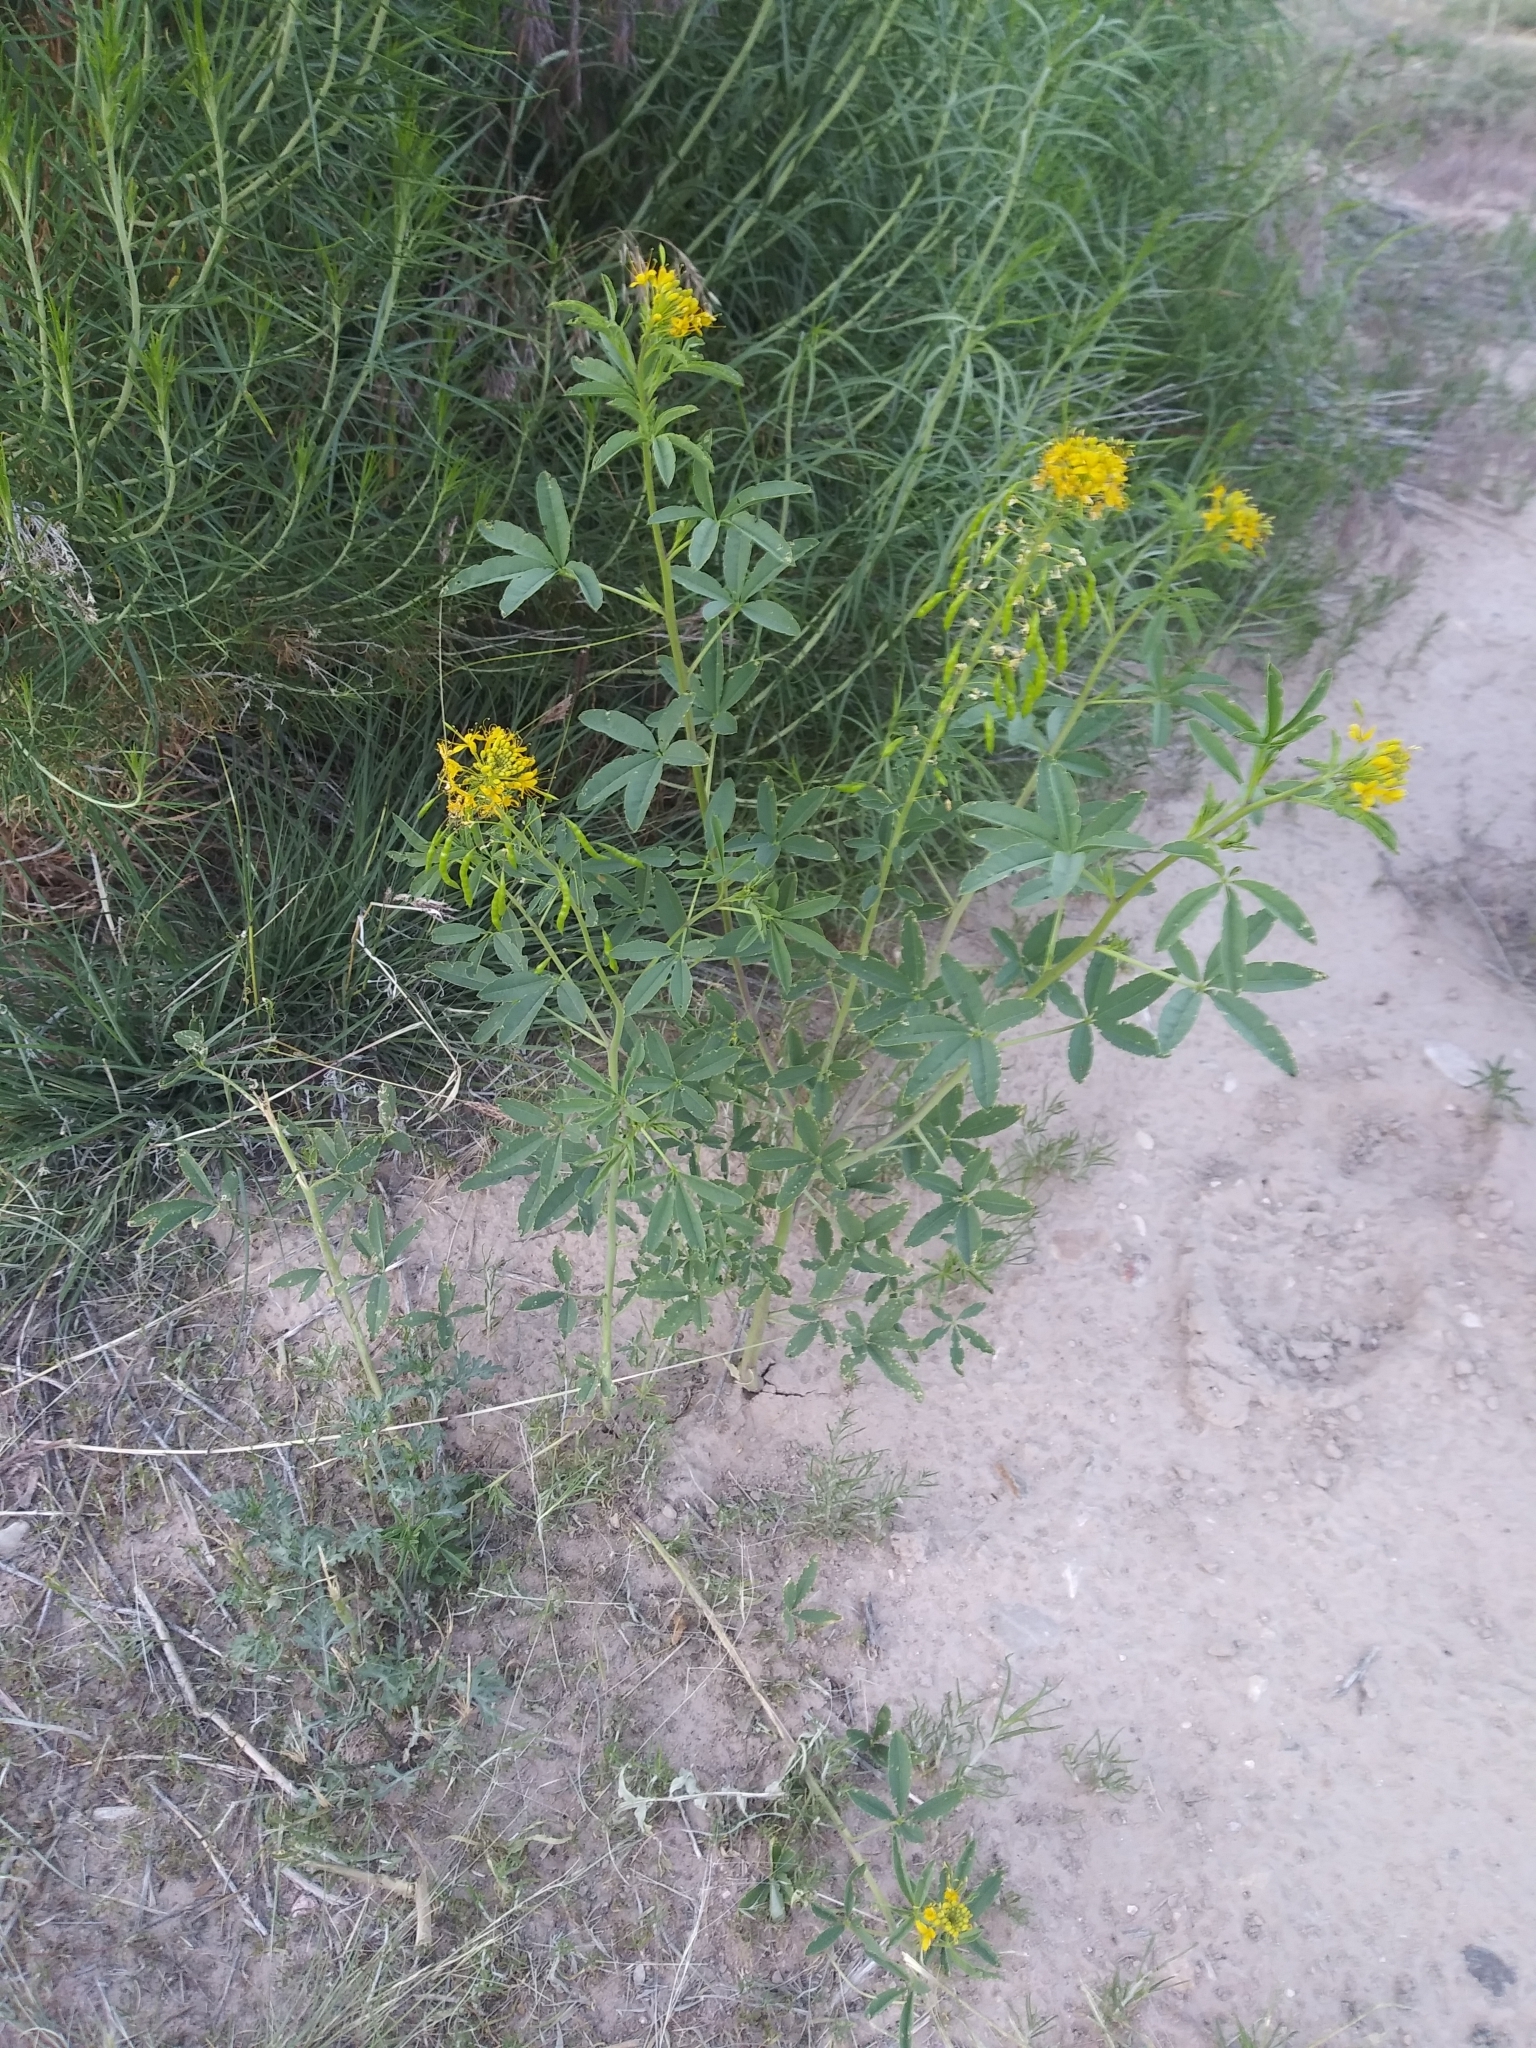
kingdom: Plantae
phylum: Tracheophyta
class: Magnoliopsida
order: Brassicales
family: Cleomaceae
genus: Cleomella
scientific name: Cleomella lutea
